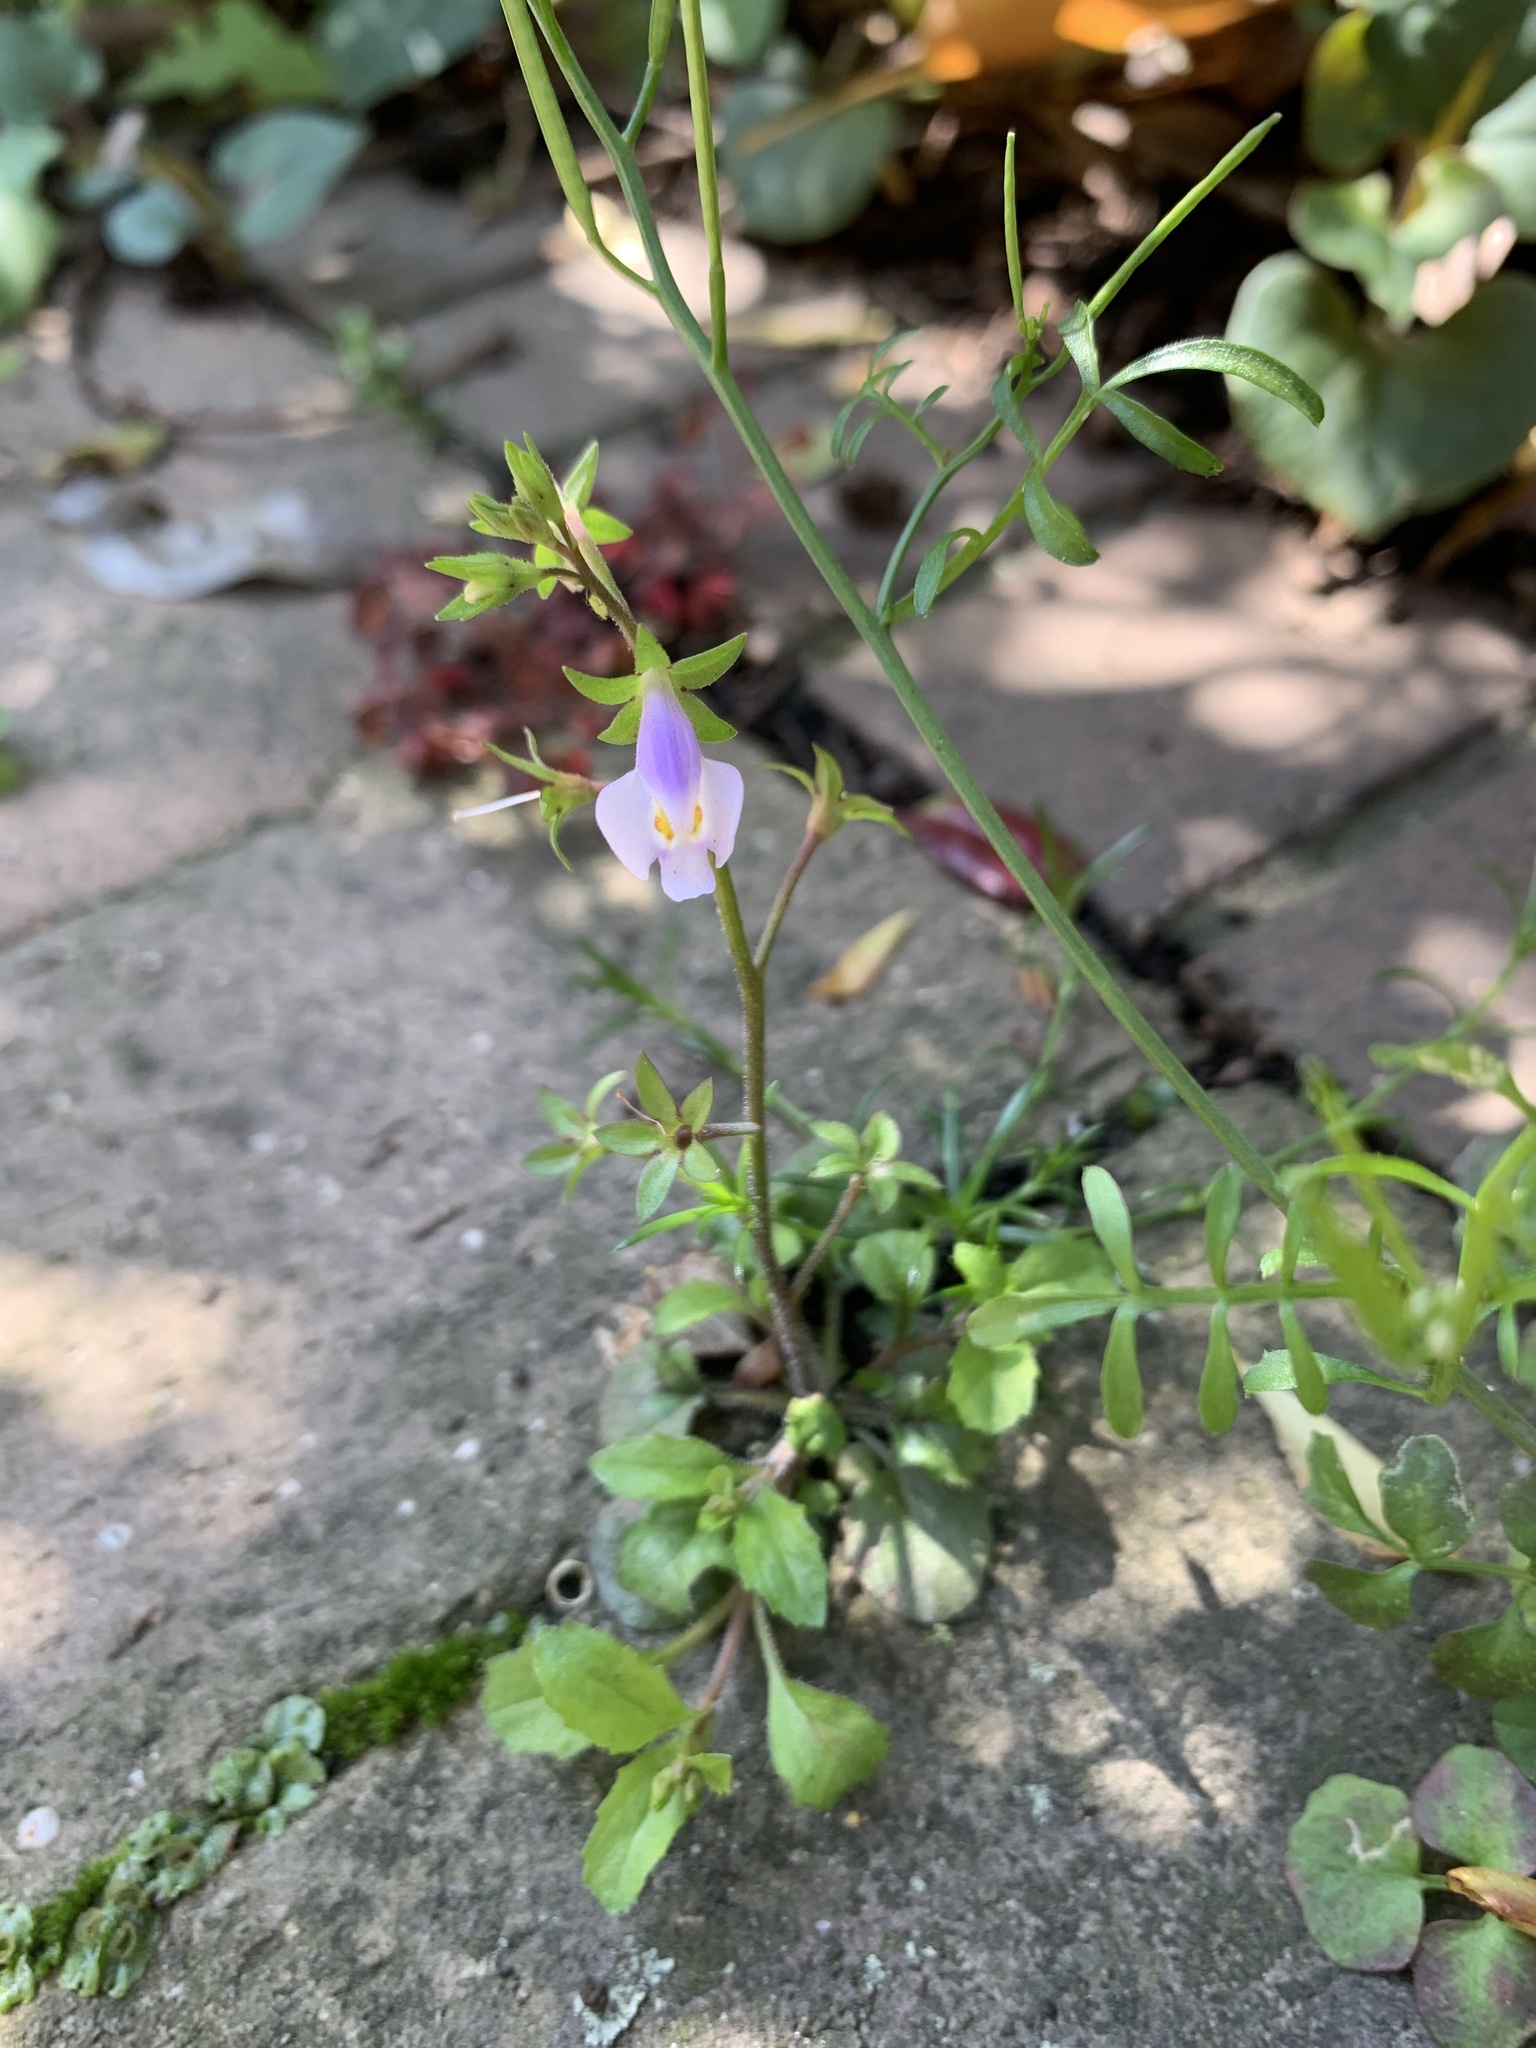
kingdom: Plantae
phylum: Tracheophyta
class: Magnoliopsida
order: Lamiales
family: Mazaceae
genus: Mazus
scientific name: Mazus pumilus
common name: Japanese mazus
